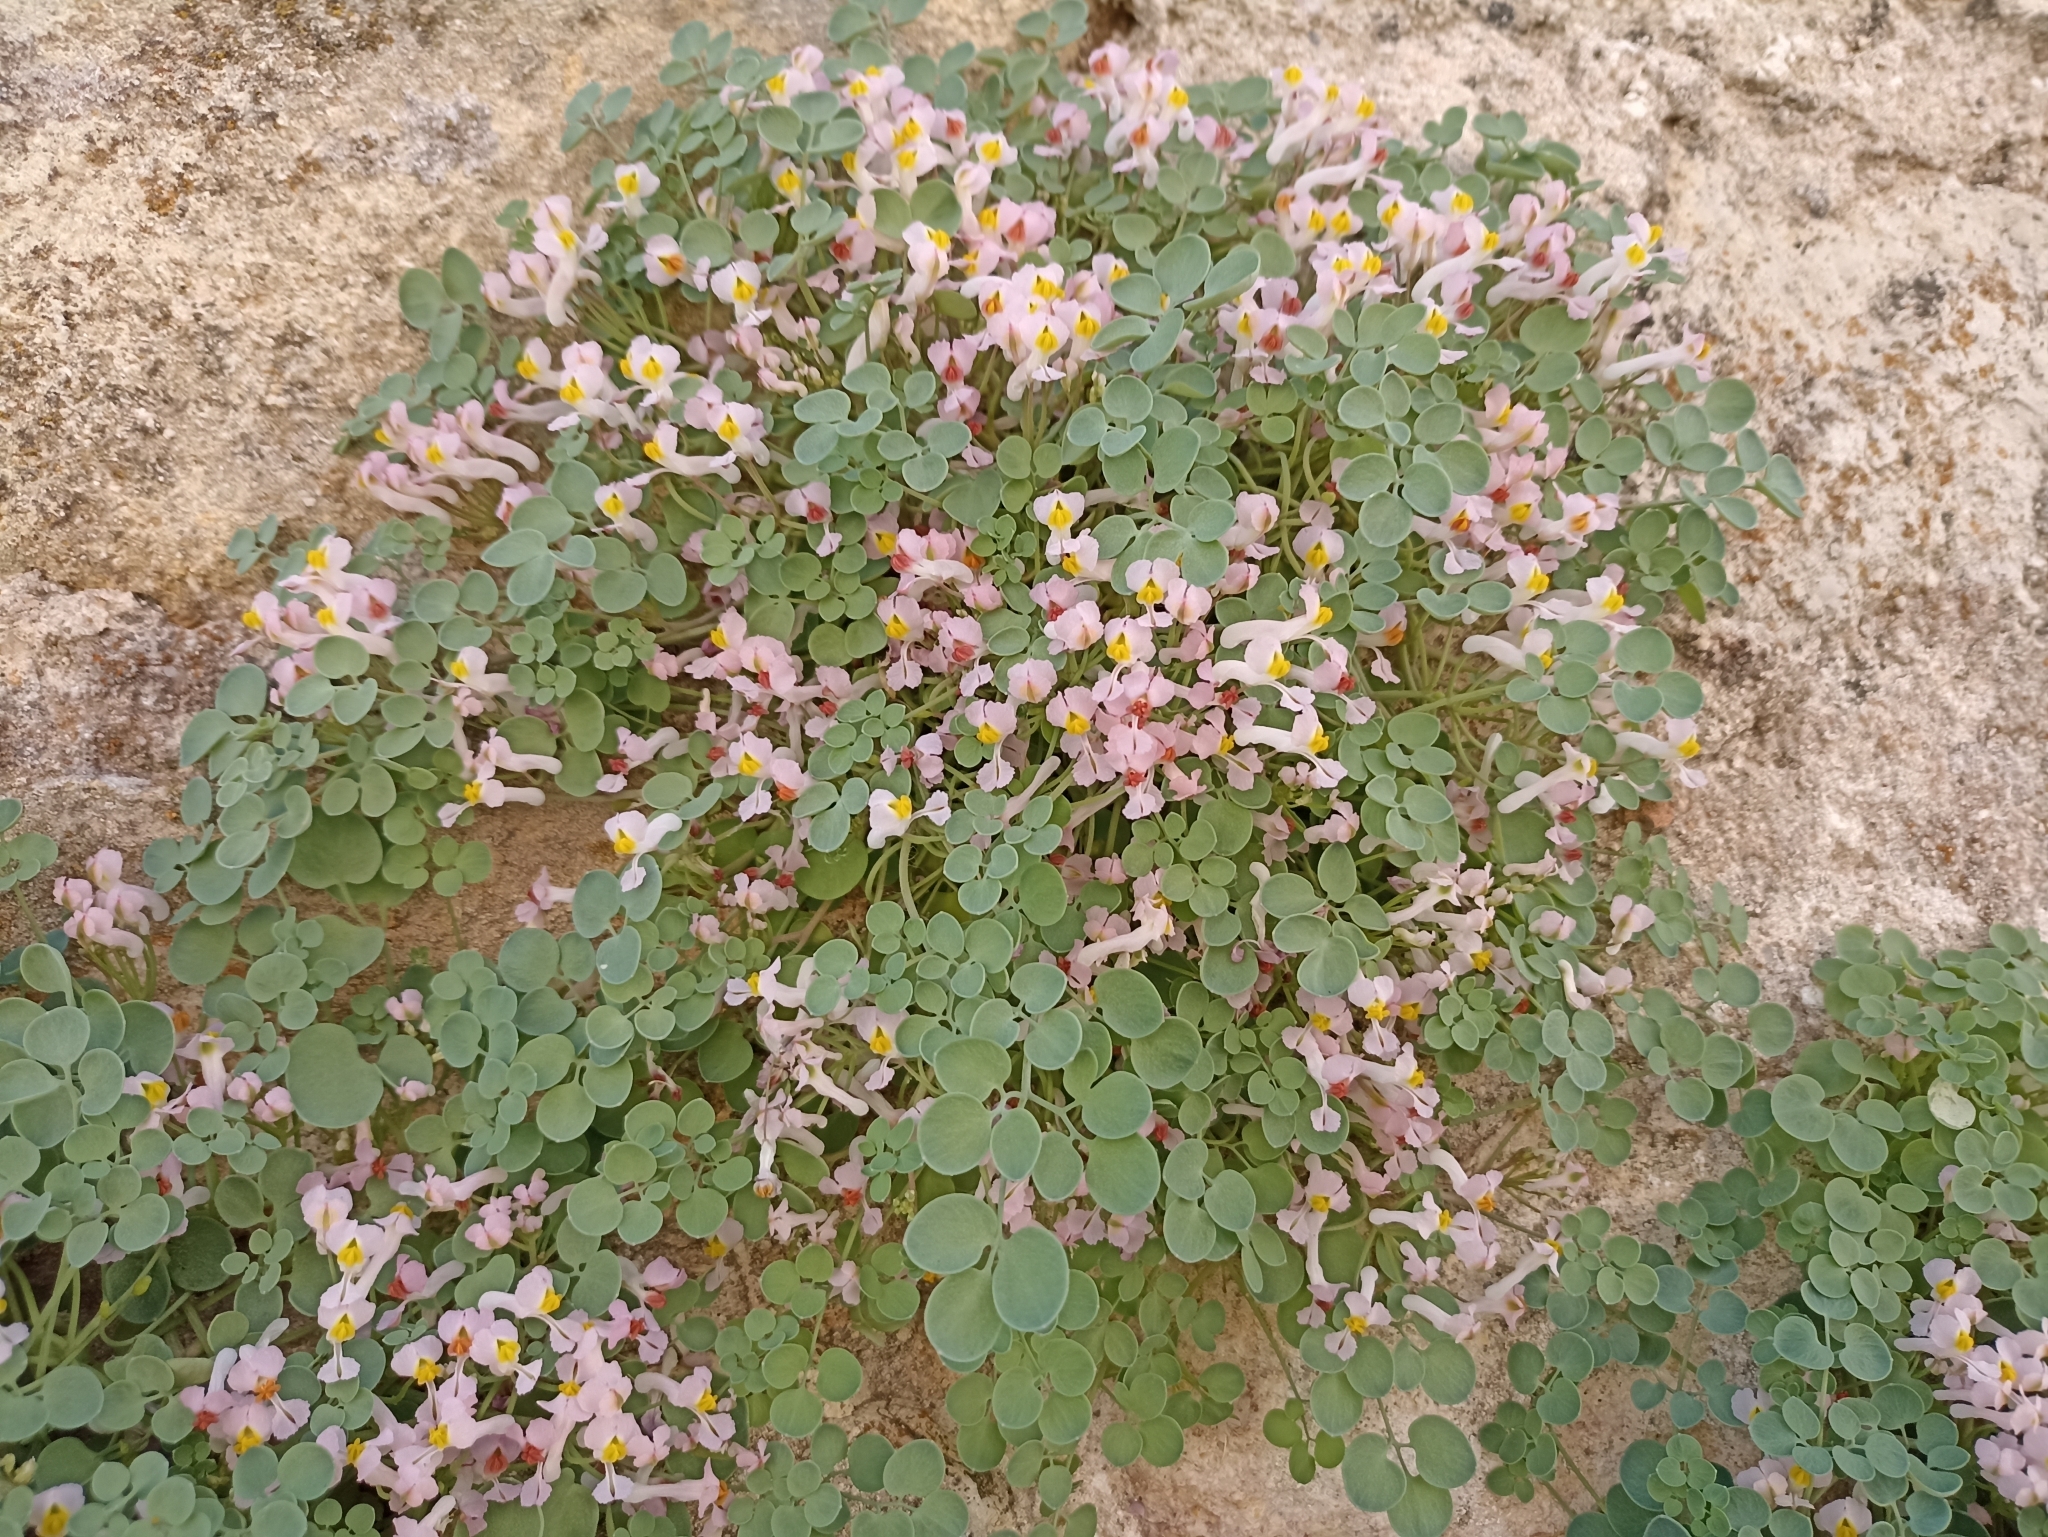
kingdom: Plantae
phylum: Tracheophyta
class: Magnoliopsida
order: Ranunculales
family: Papaveraceae
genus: Sarcocapnos
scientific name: Sarcocapnos enneaphylla
